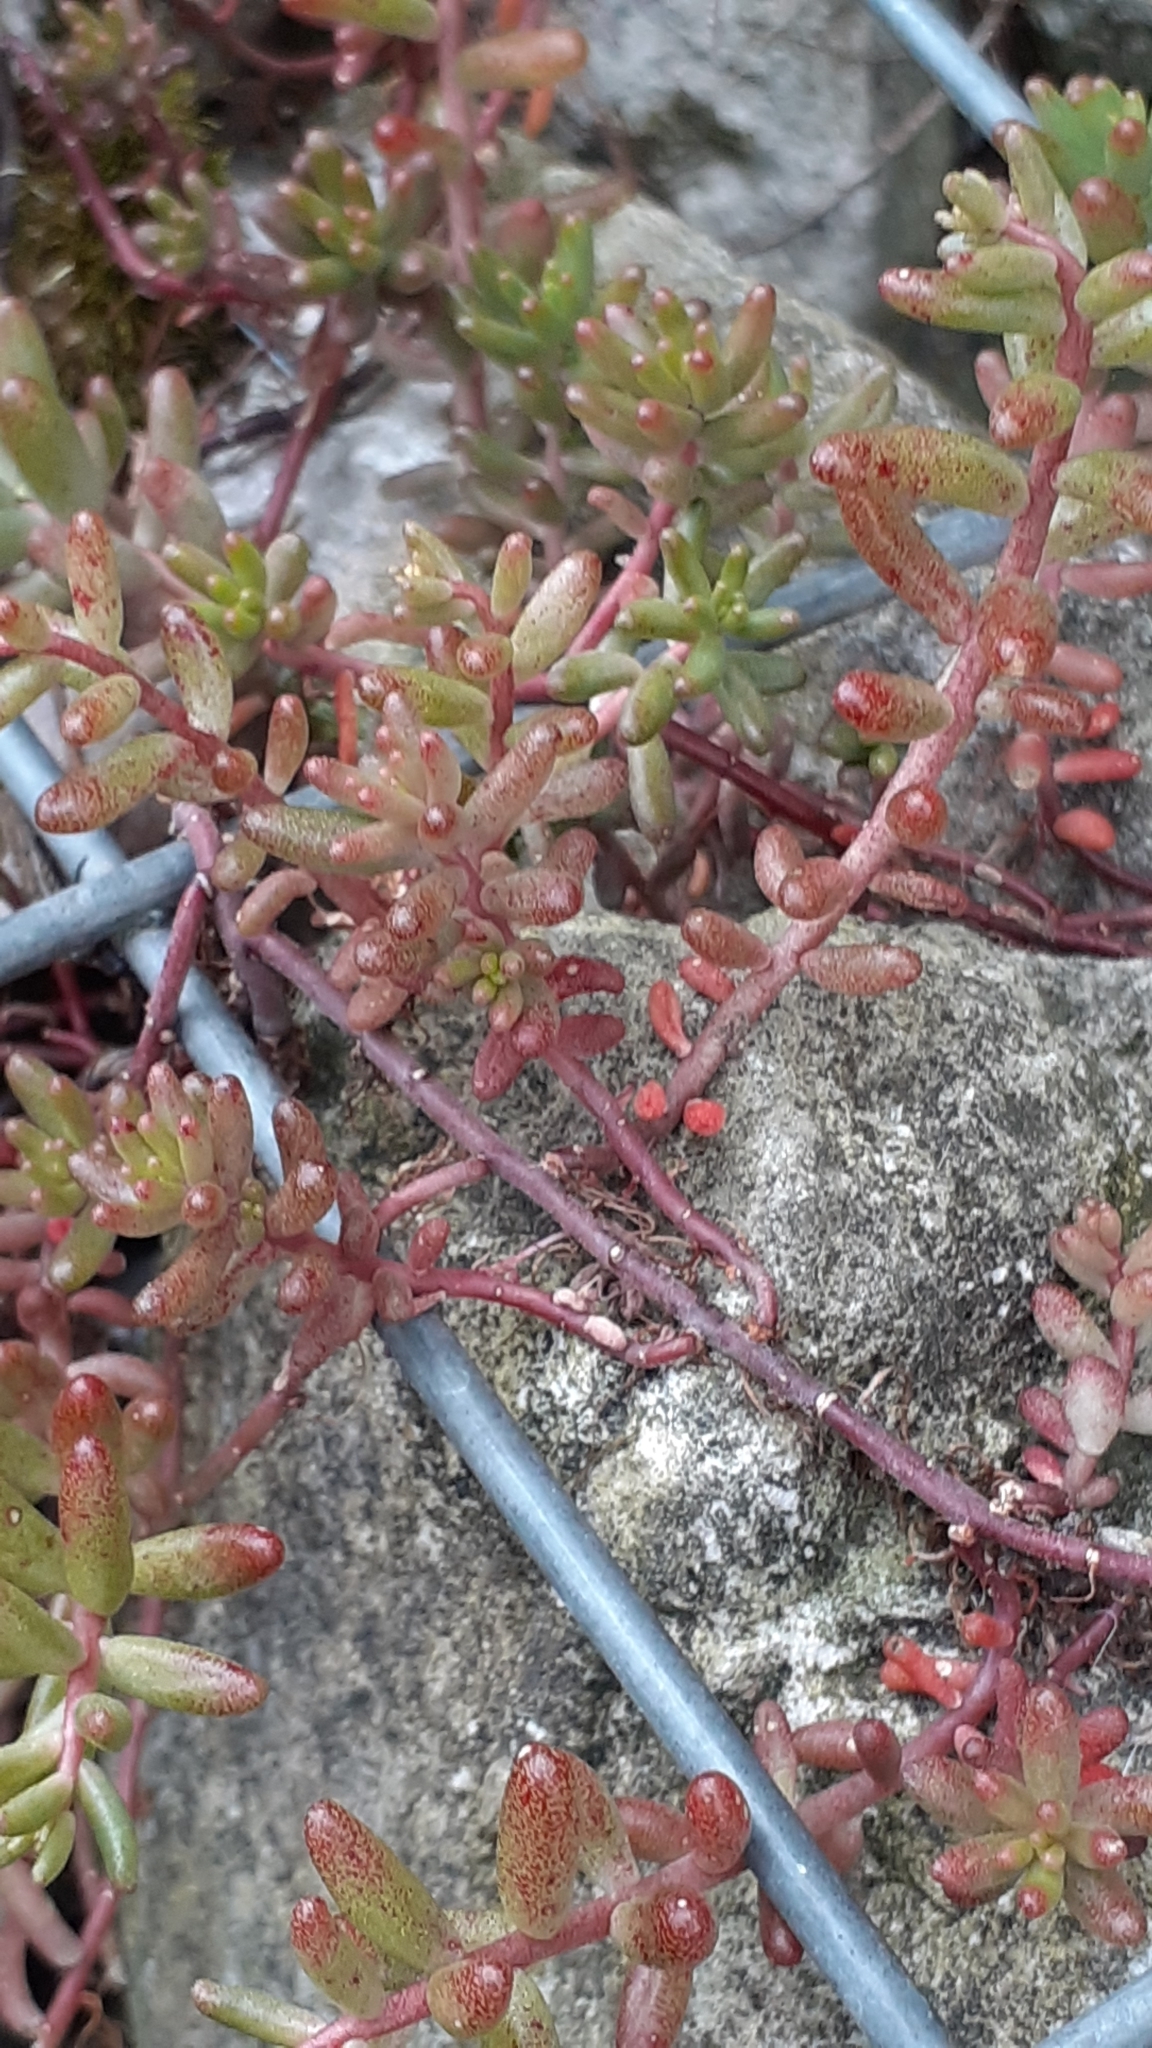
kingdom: Plantae
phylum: Tracheophyta
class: Magnoliopsida
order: Saxifragales
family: Crassulaceae
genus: Sedum
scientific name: Sedum album
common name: White stonecrop
